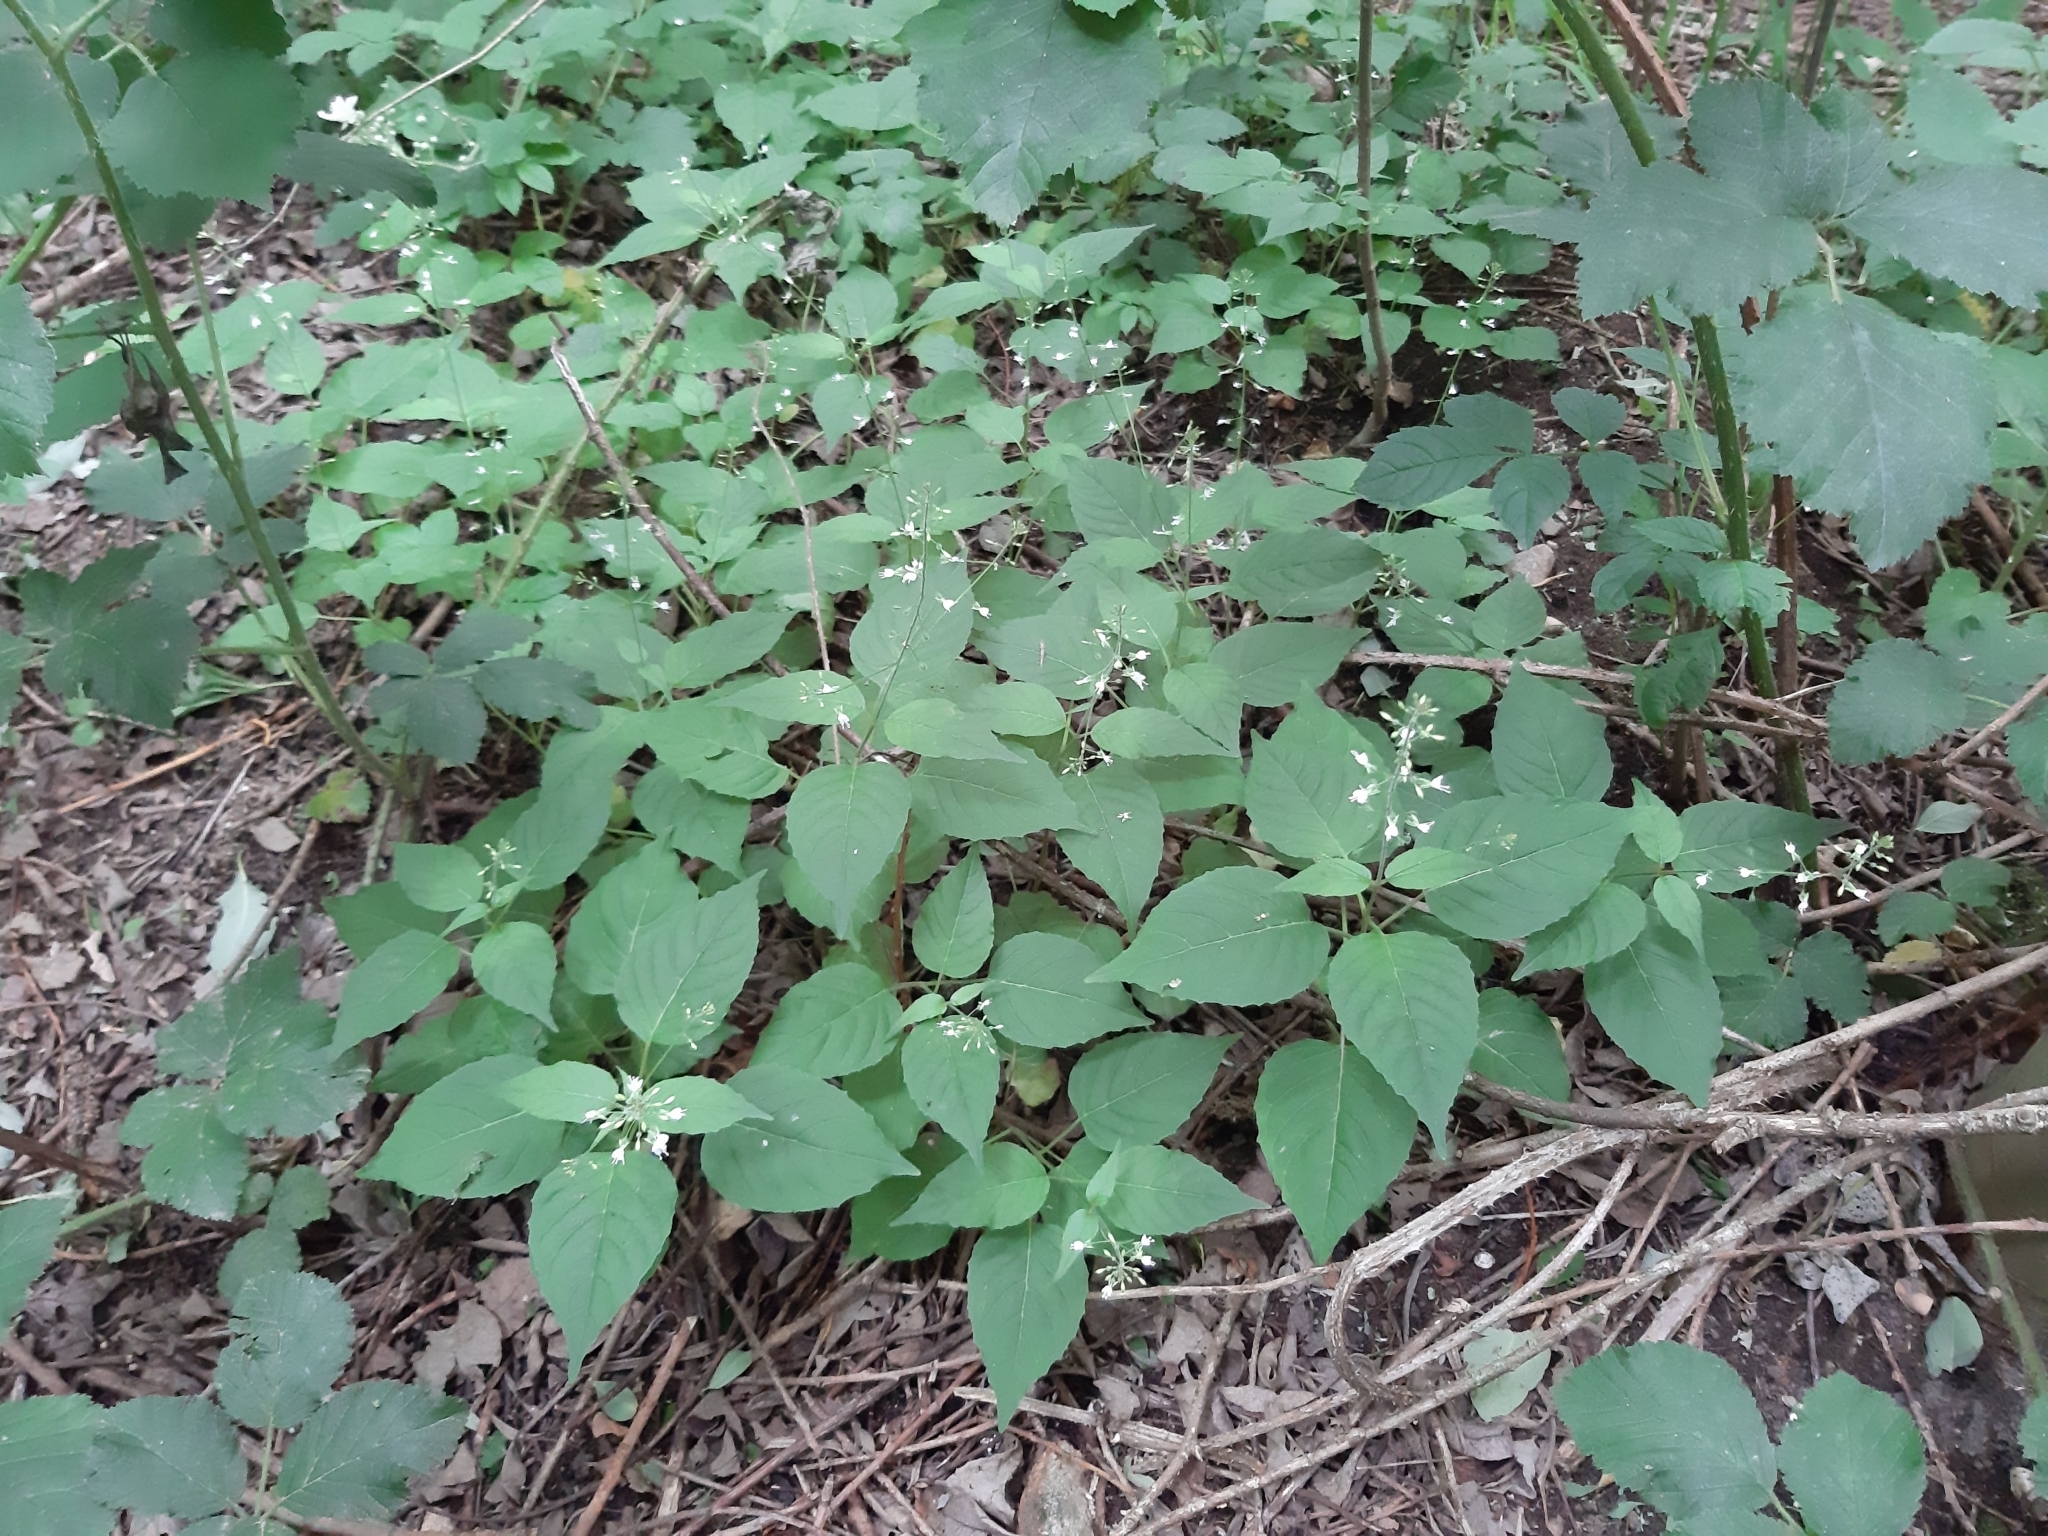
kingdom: Plantae
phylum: Tracheophyta
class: Magnoliopsida
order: Myrtales
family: Onagraceae
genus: Circaea
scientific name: Circaea lutetiana
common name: Enchanter's-nightshade
